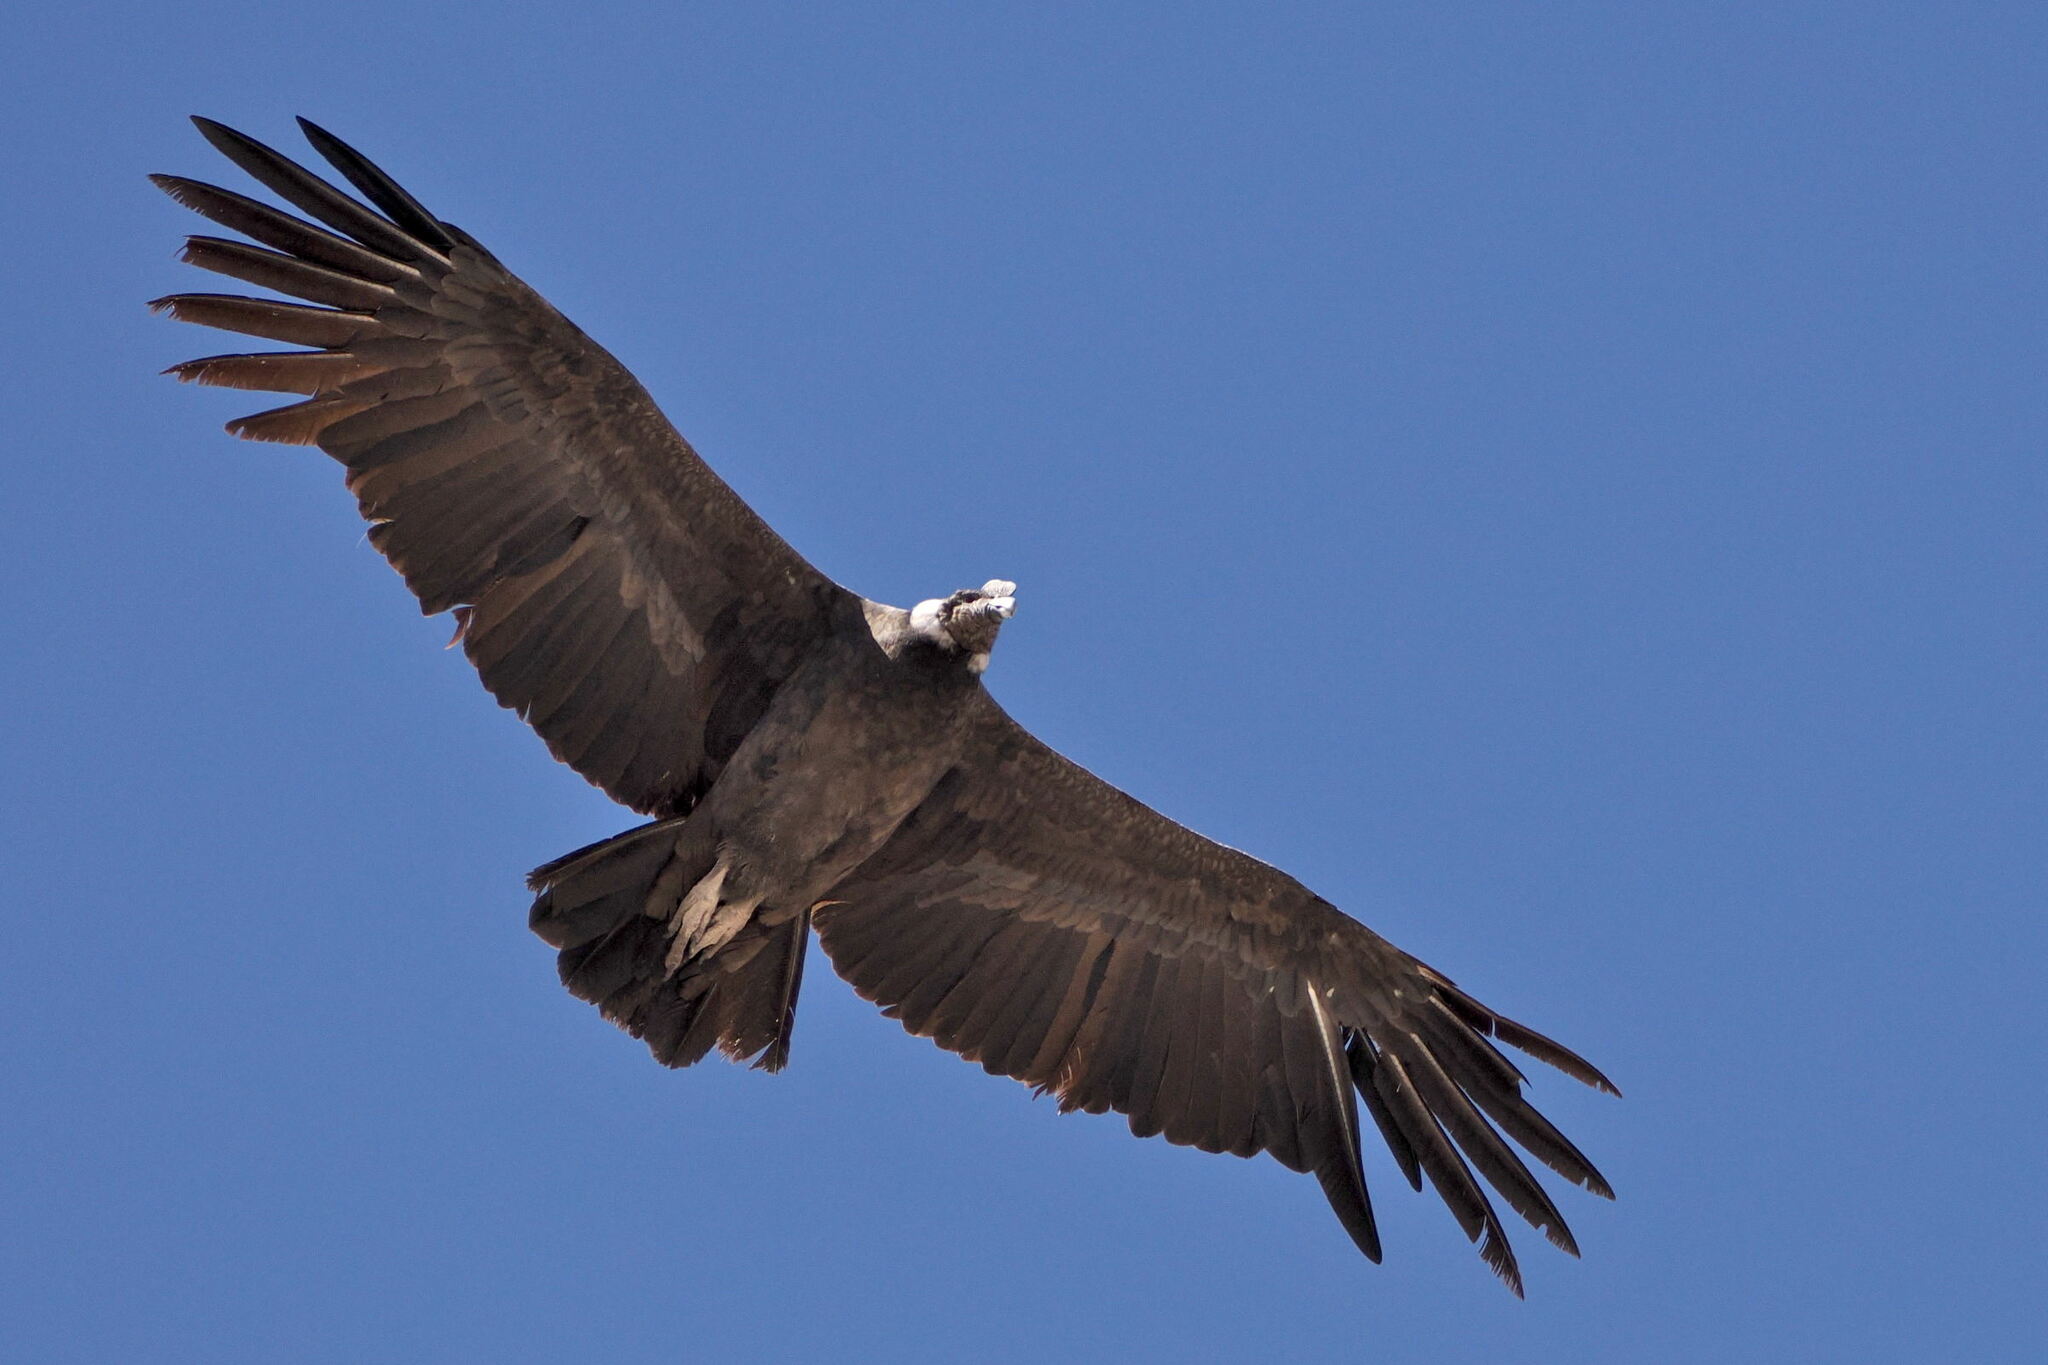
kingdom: Animalia
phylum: Chordata
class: Aves
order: Accipitriformes
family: Cathartidae
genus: Vultur
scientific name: Vultur gryphus
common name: Andean condor
